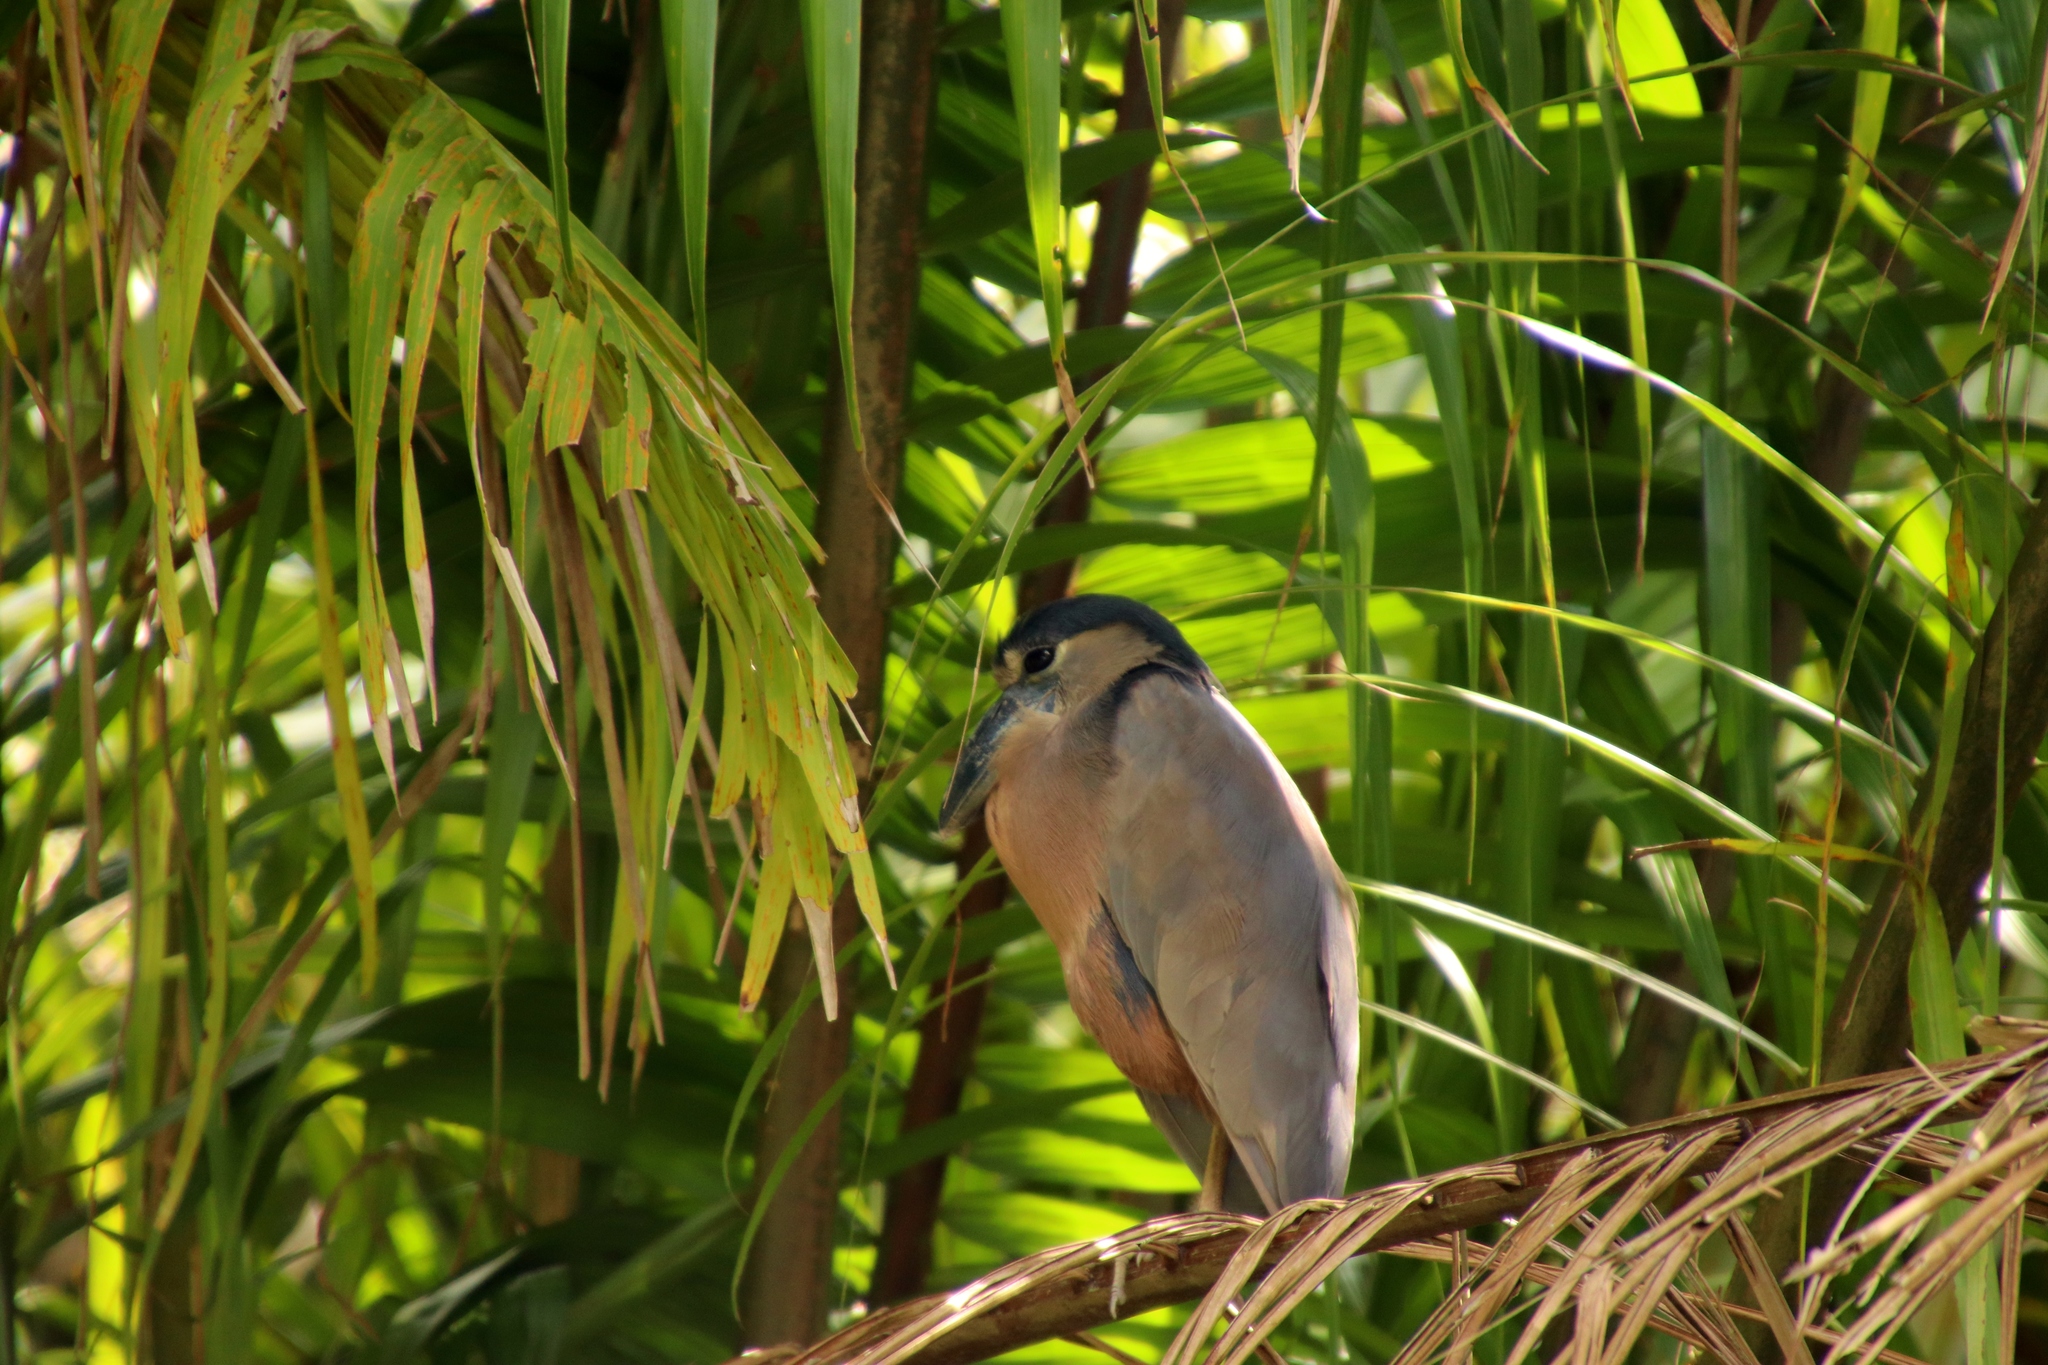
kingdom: Animalia
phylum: Chordata
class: Aves
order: Pelecaniformes
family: Ardeidae
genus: Cochlearius
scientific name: Cochlearius cochlearius
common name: Boat-billed heron
